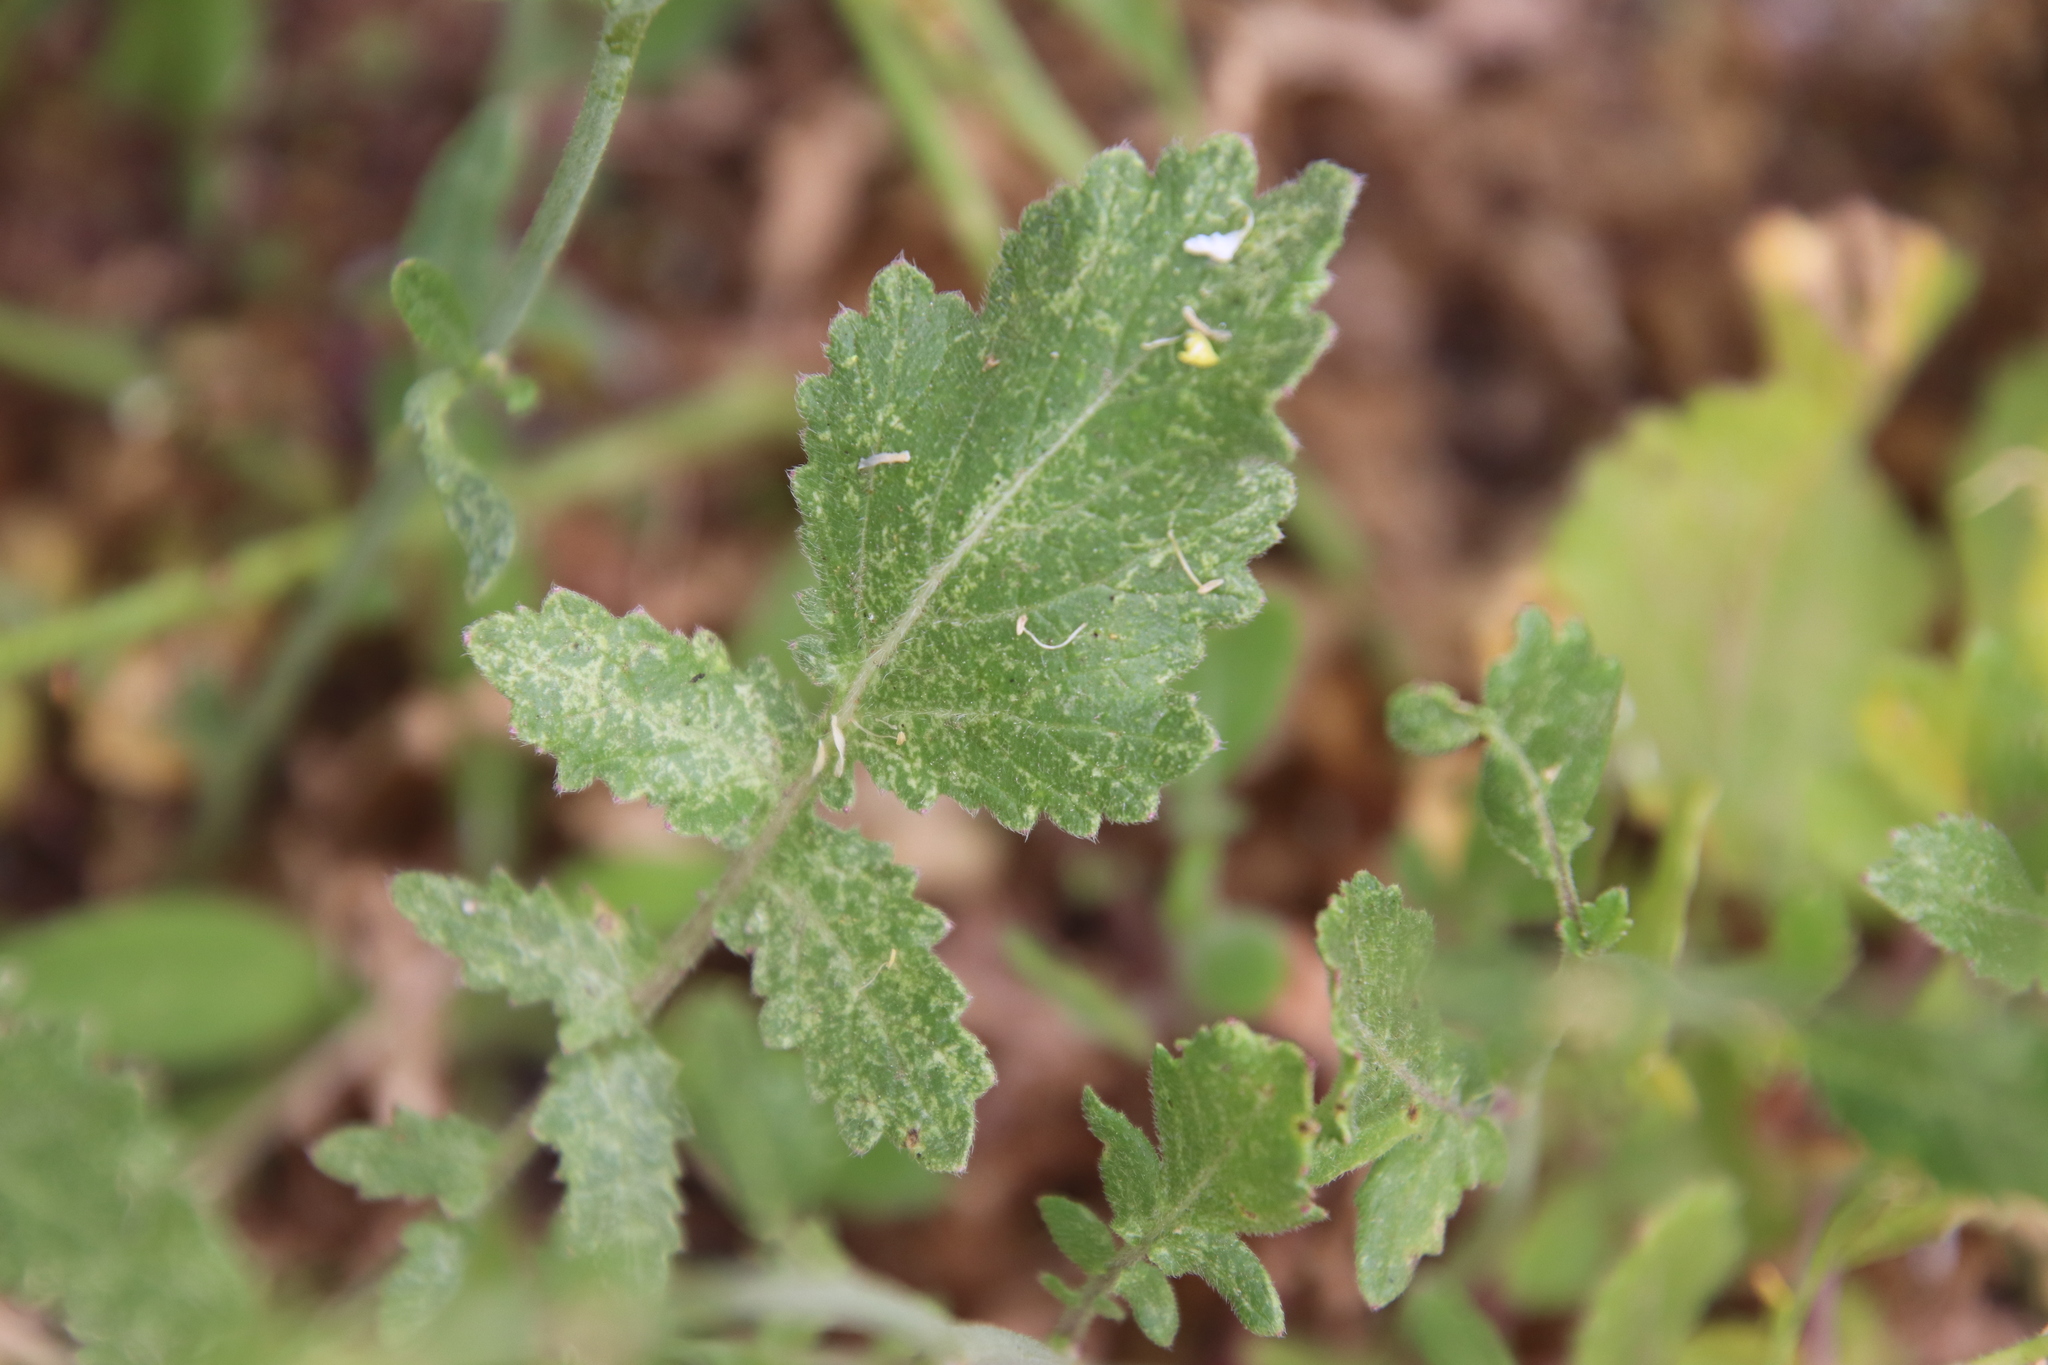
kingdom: Plantae
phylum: Tracheophyta
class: Magnoliopsida
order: Brassicales
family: Brassicaceae
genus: Hirschfeldia
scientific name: Hirschfeldia incana
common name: Hoary mustard
